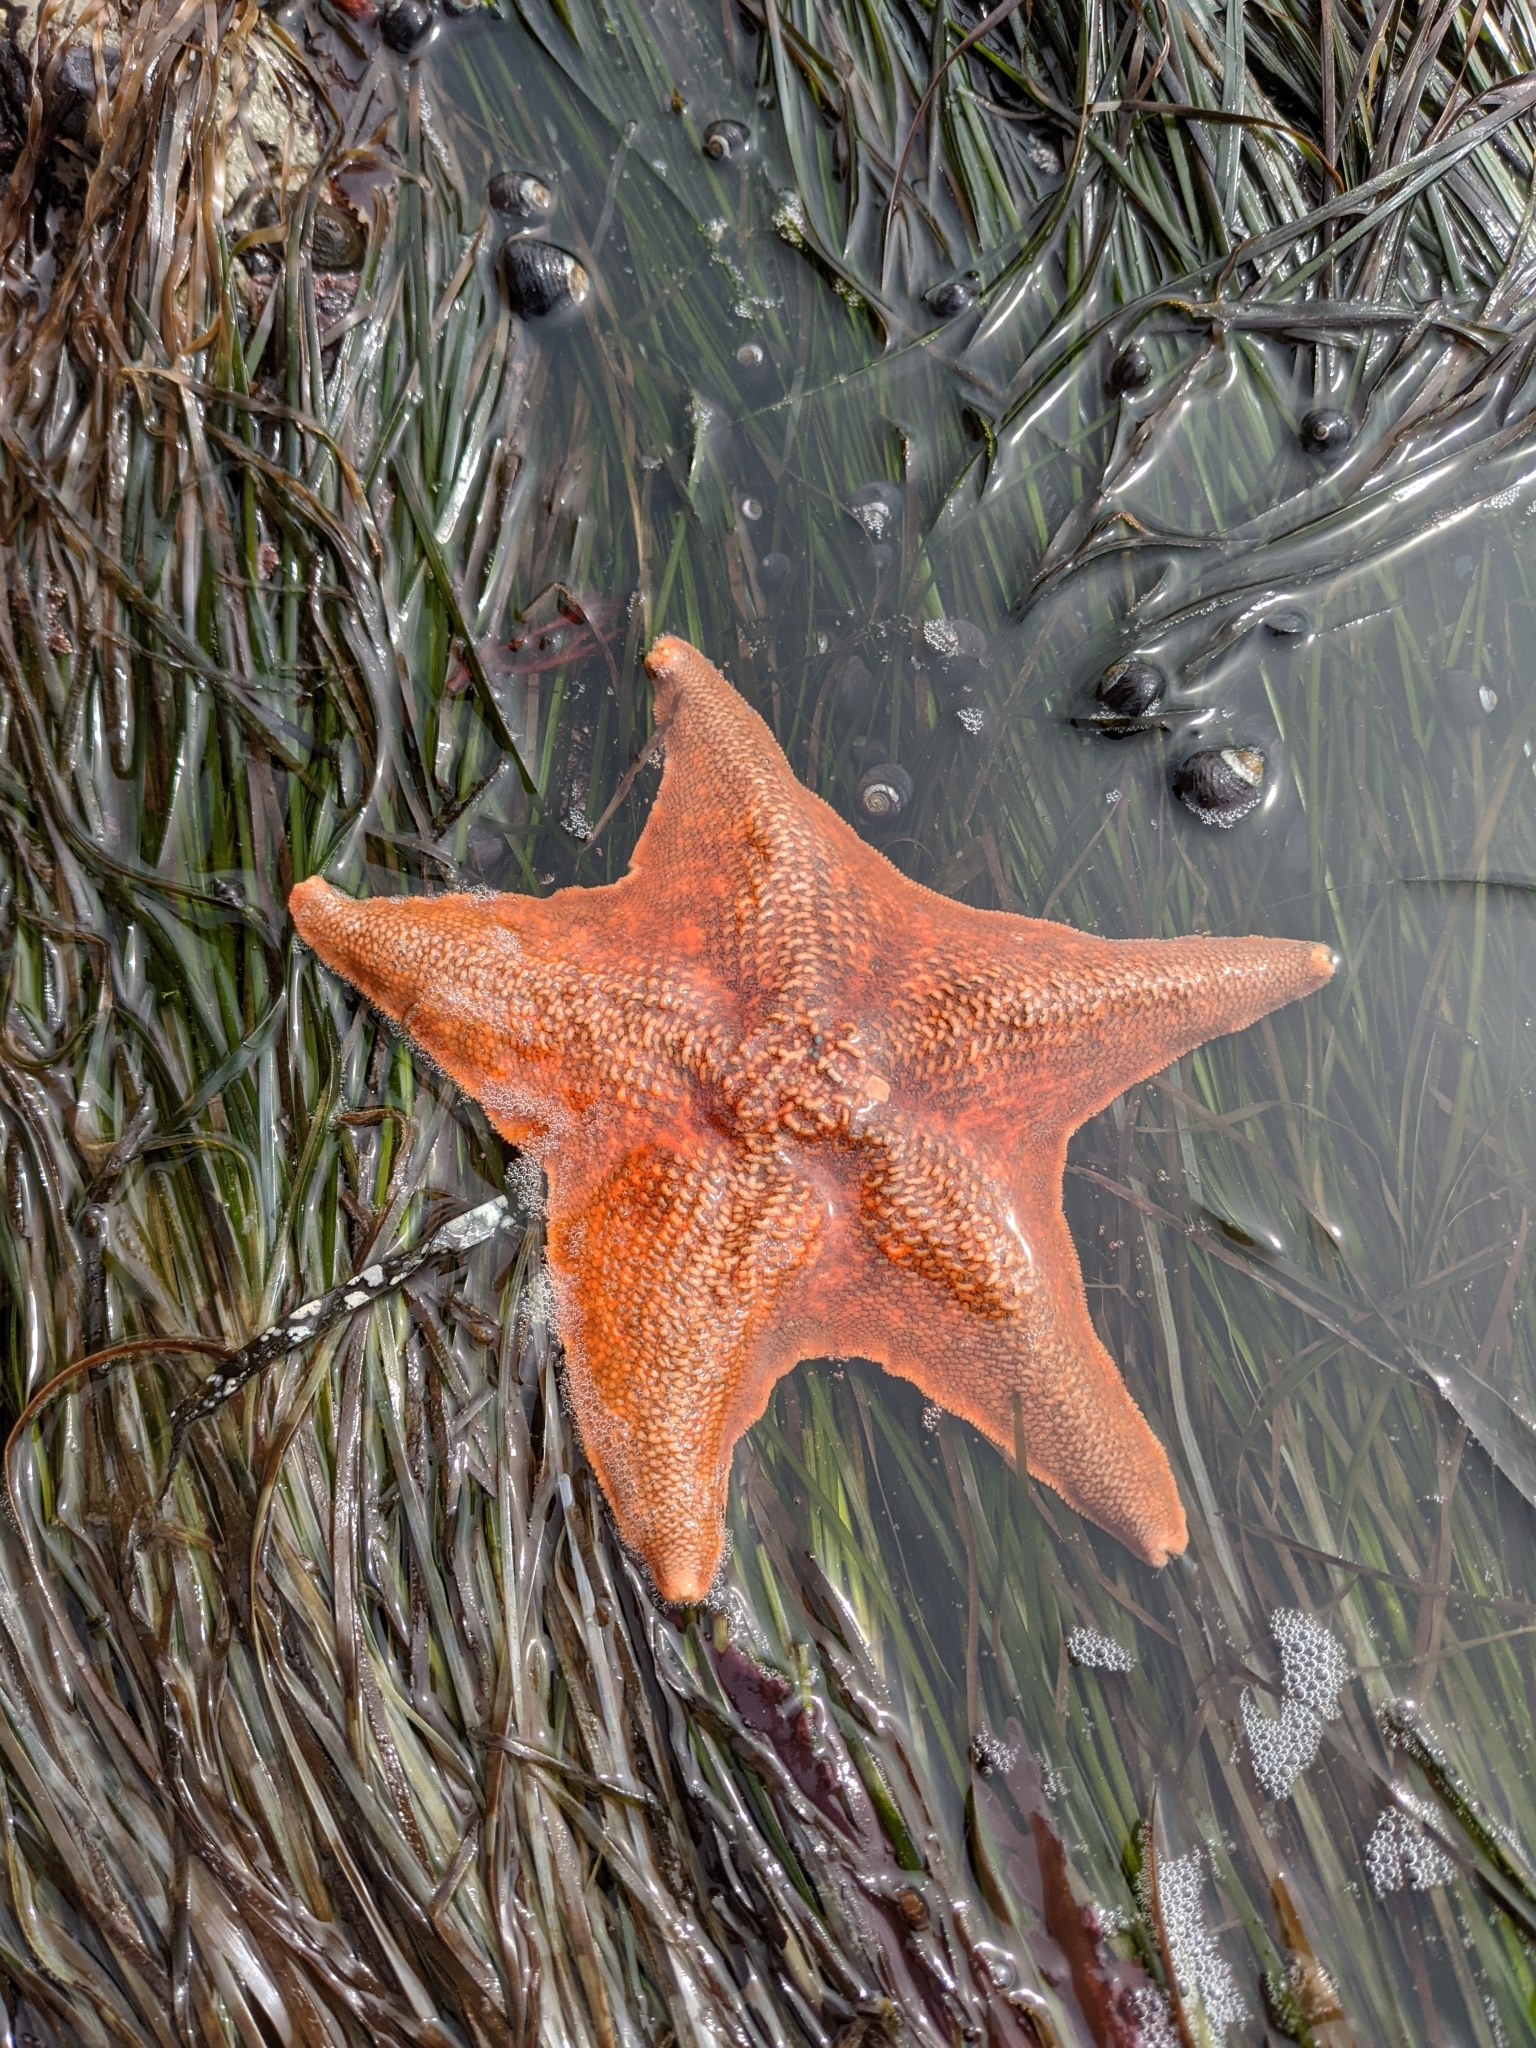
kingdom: Animalia
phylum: Echinodermata
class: Asteroidea
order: Valvatida
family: Asterinidae
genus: Patiria
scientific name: Patiria miniata
